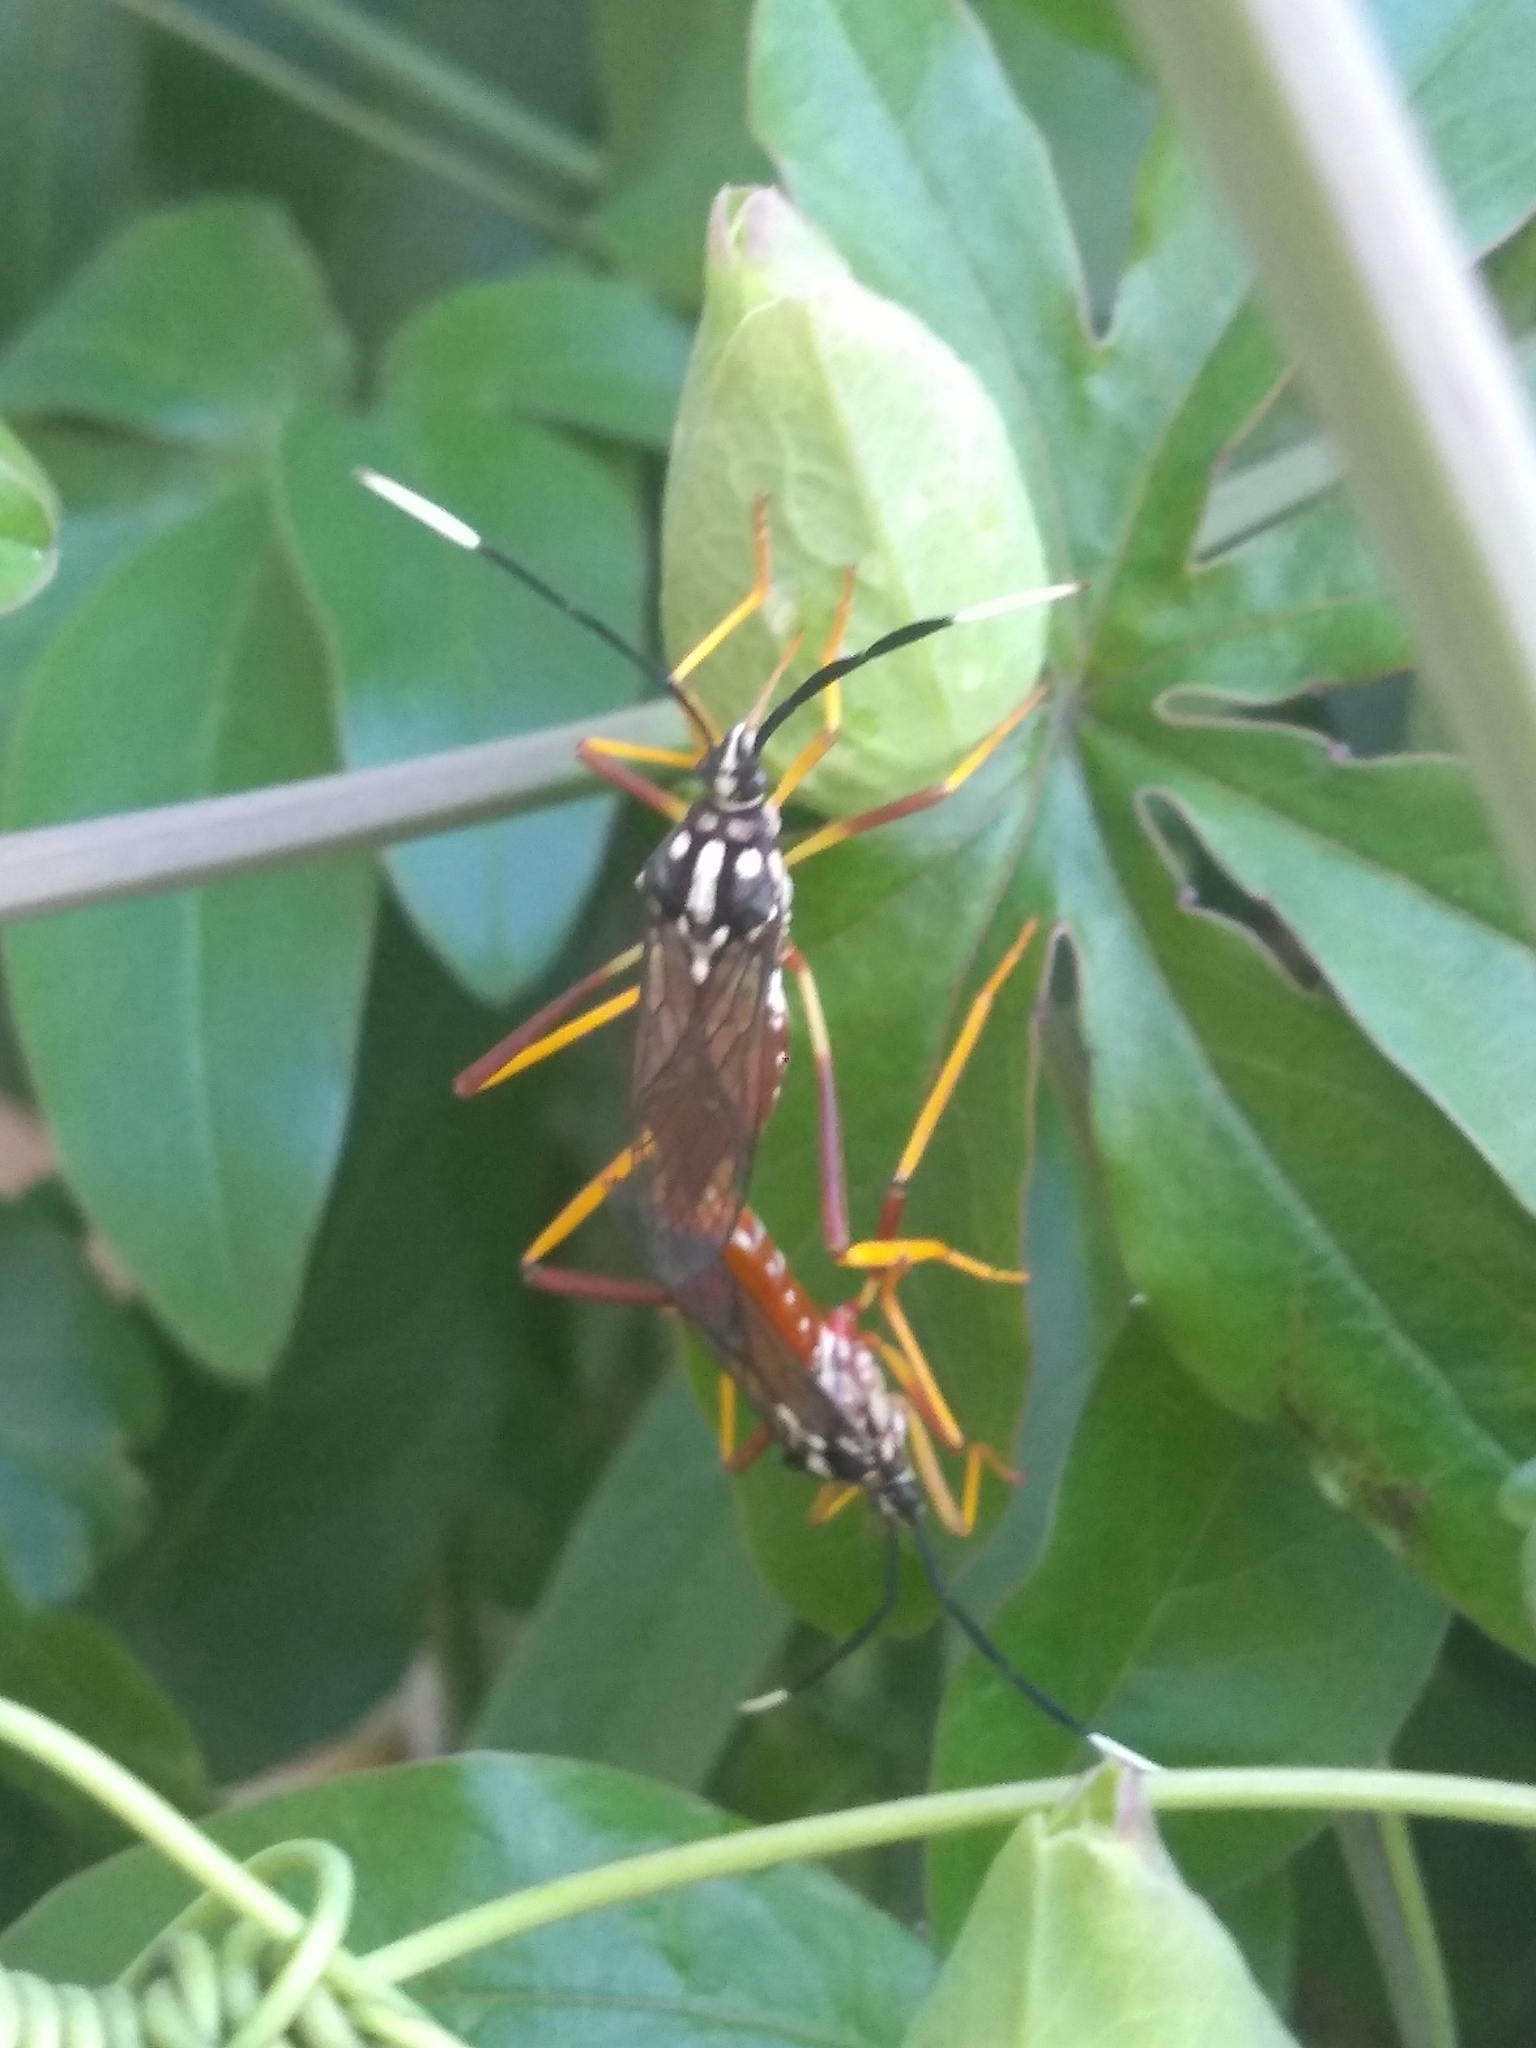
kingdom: Animalia
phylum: Arthropoda
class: Insecta
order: Hemiptera
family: Coreidae
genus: Holhymenia
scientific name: Holhymenia histrio
